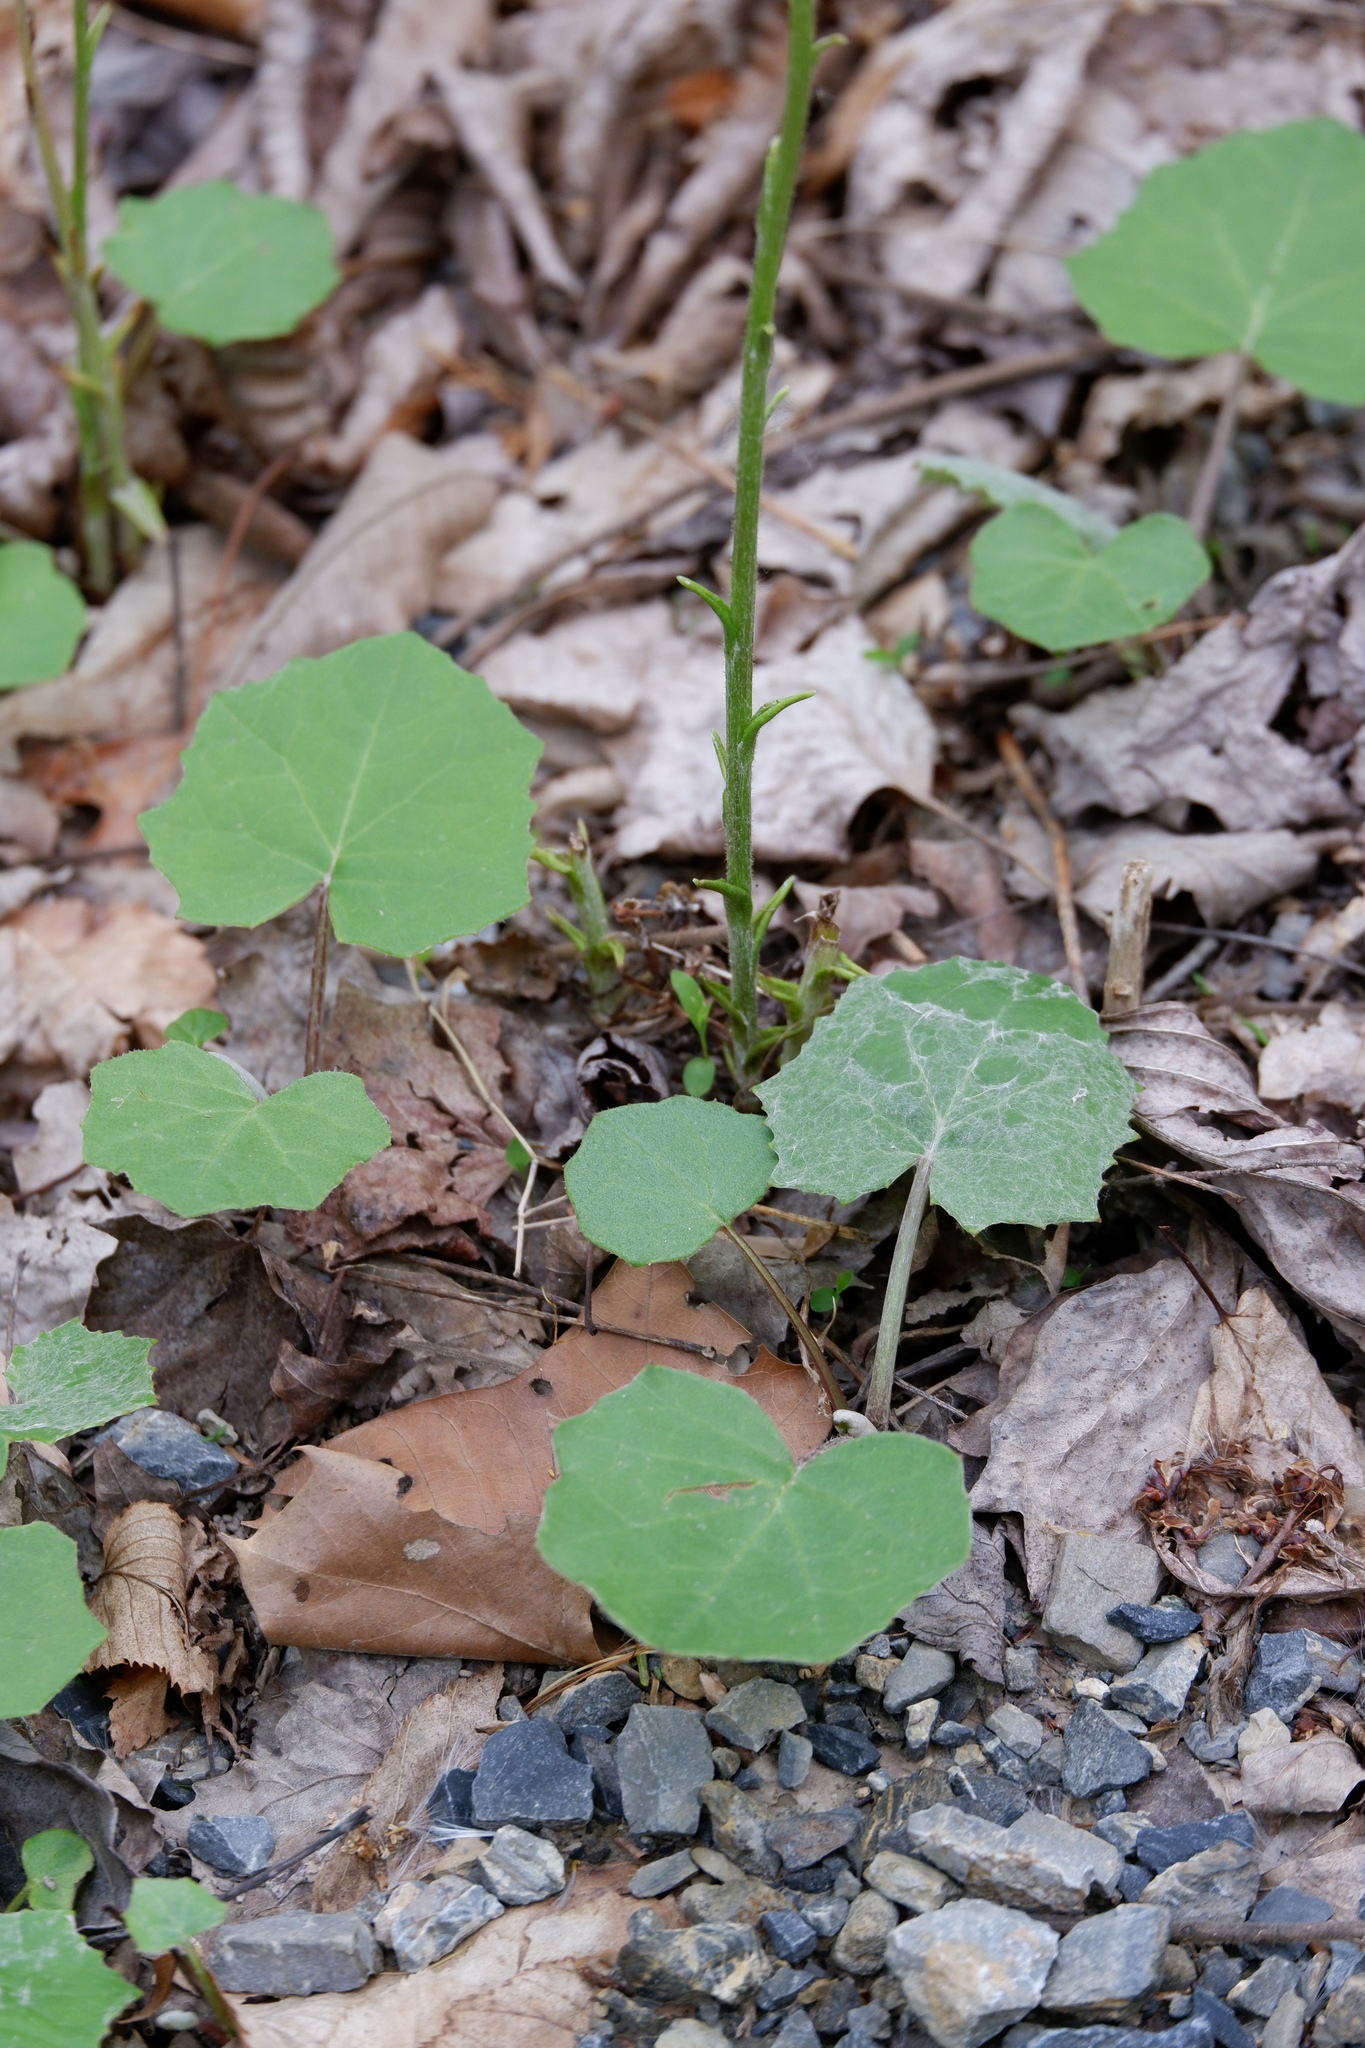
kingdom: Plantae
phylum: Tracheophyta
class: Magnoliopsida
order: Asterales
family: Asteraceae
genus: Tussilago
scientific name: Tussilago farfara
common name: Coltsfoot
